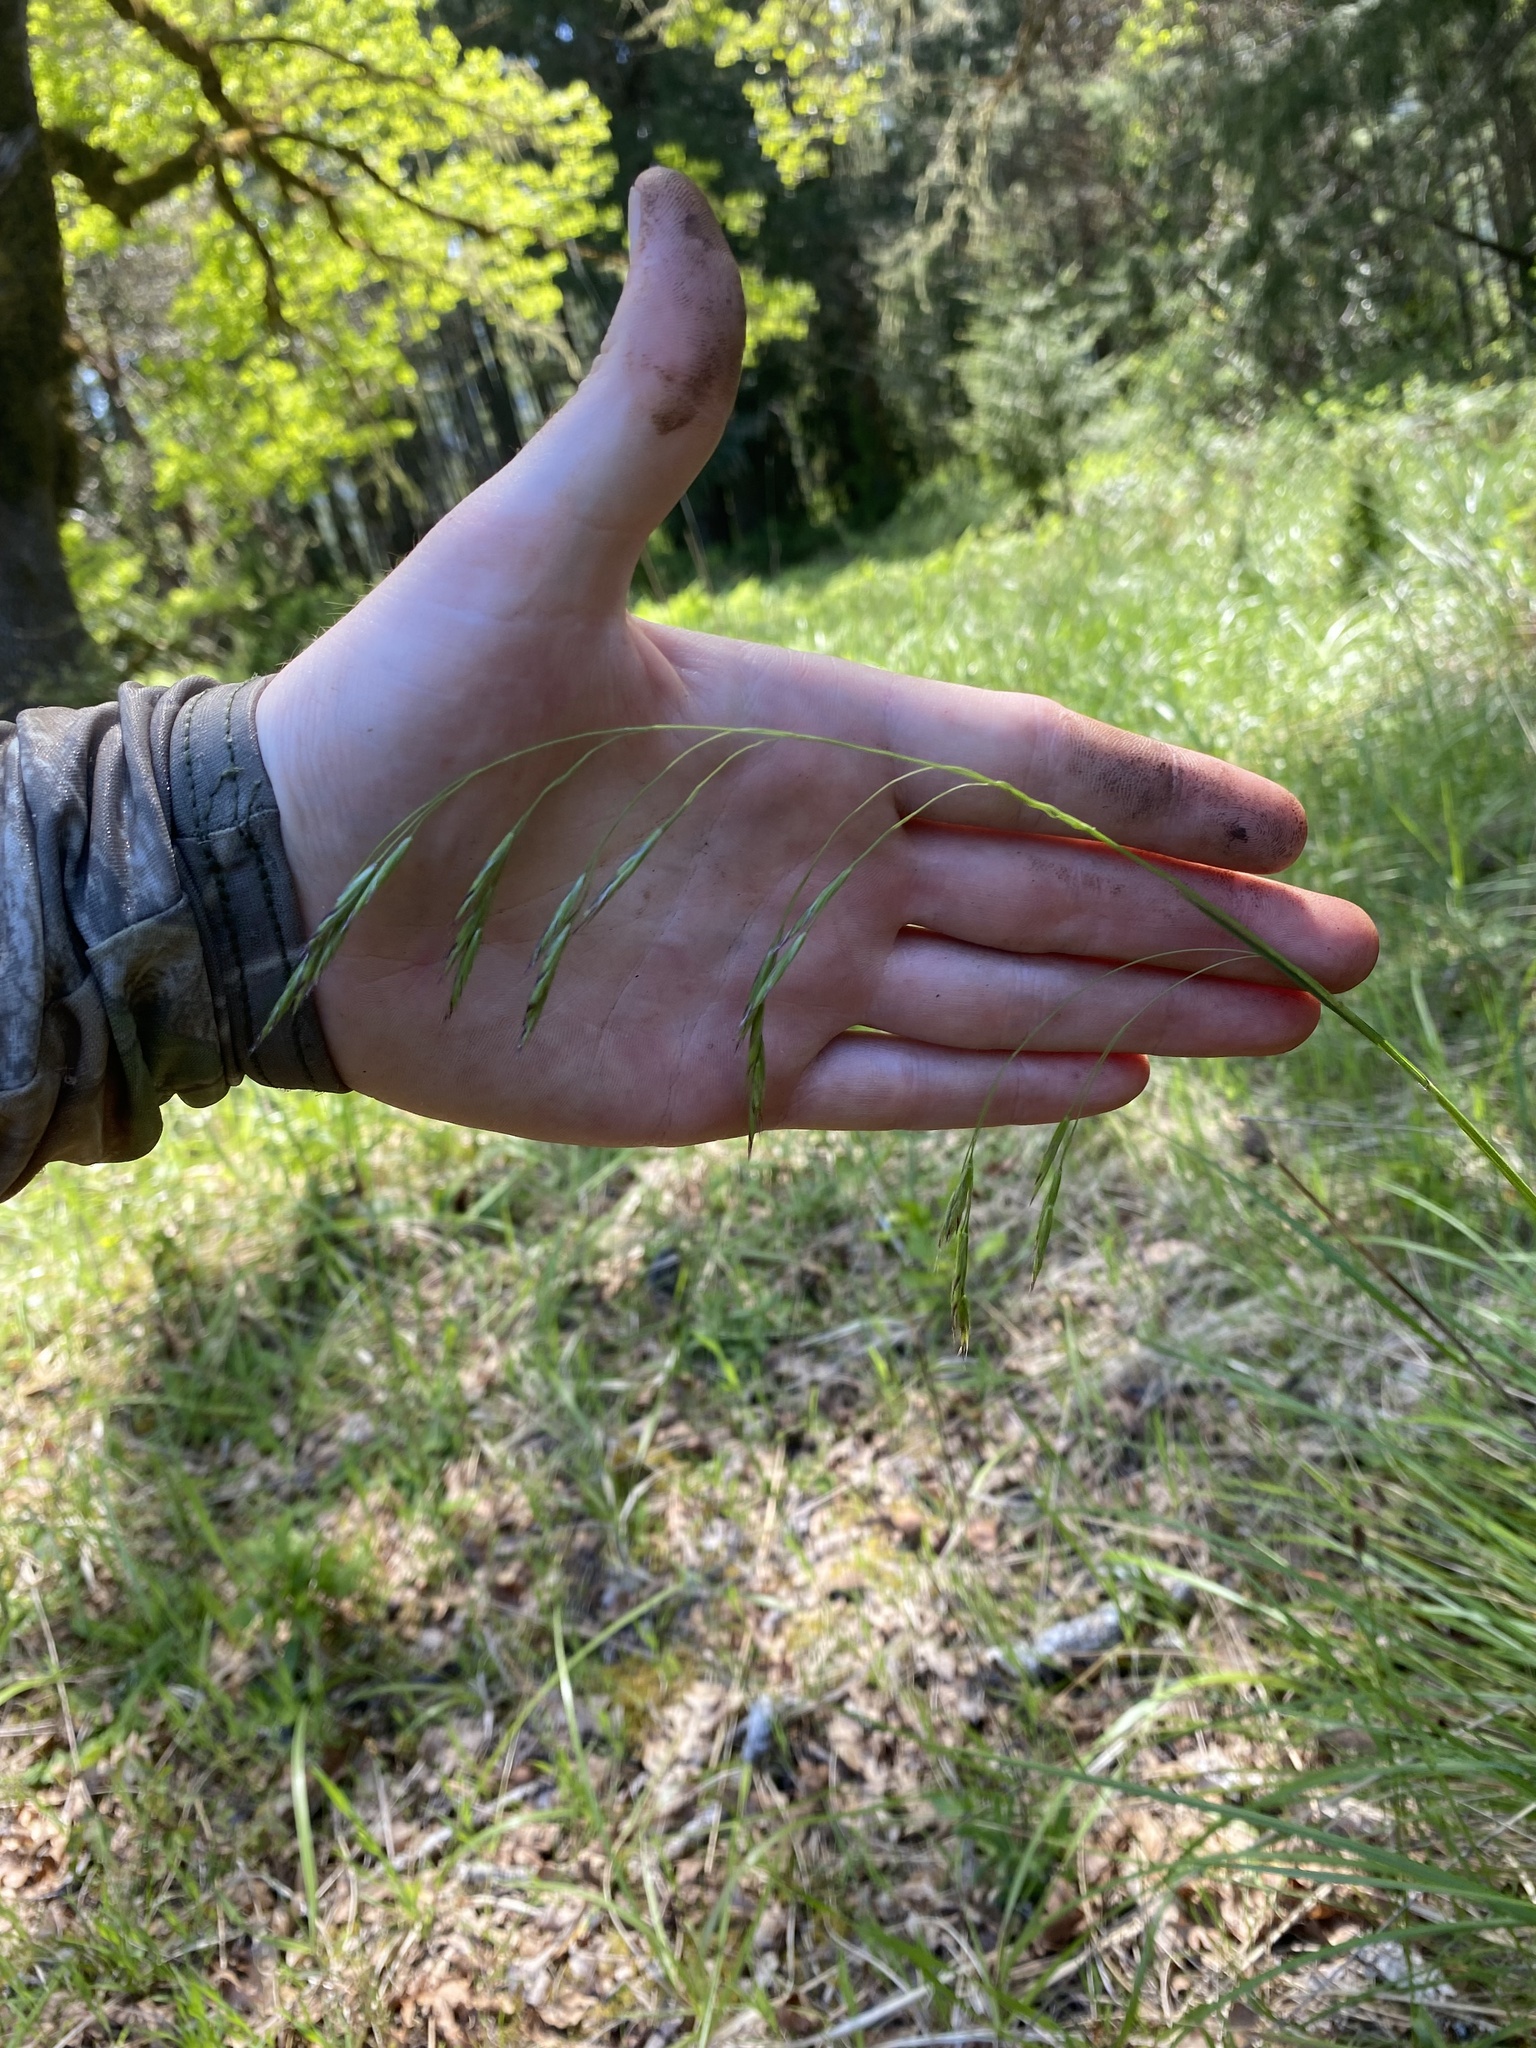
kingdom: Plantae
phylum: Tracheophyta
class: Liliopsida
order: Poales
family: Poaceae
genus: Festuca
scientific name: Festuca californica
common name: California fescue
